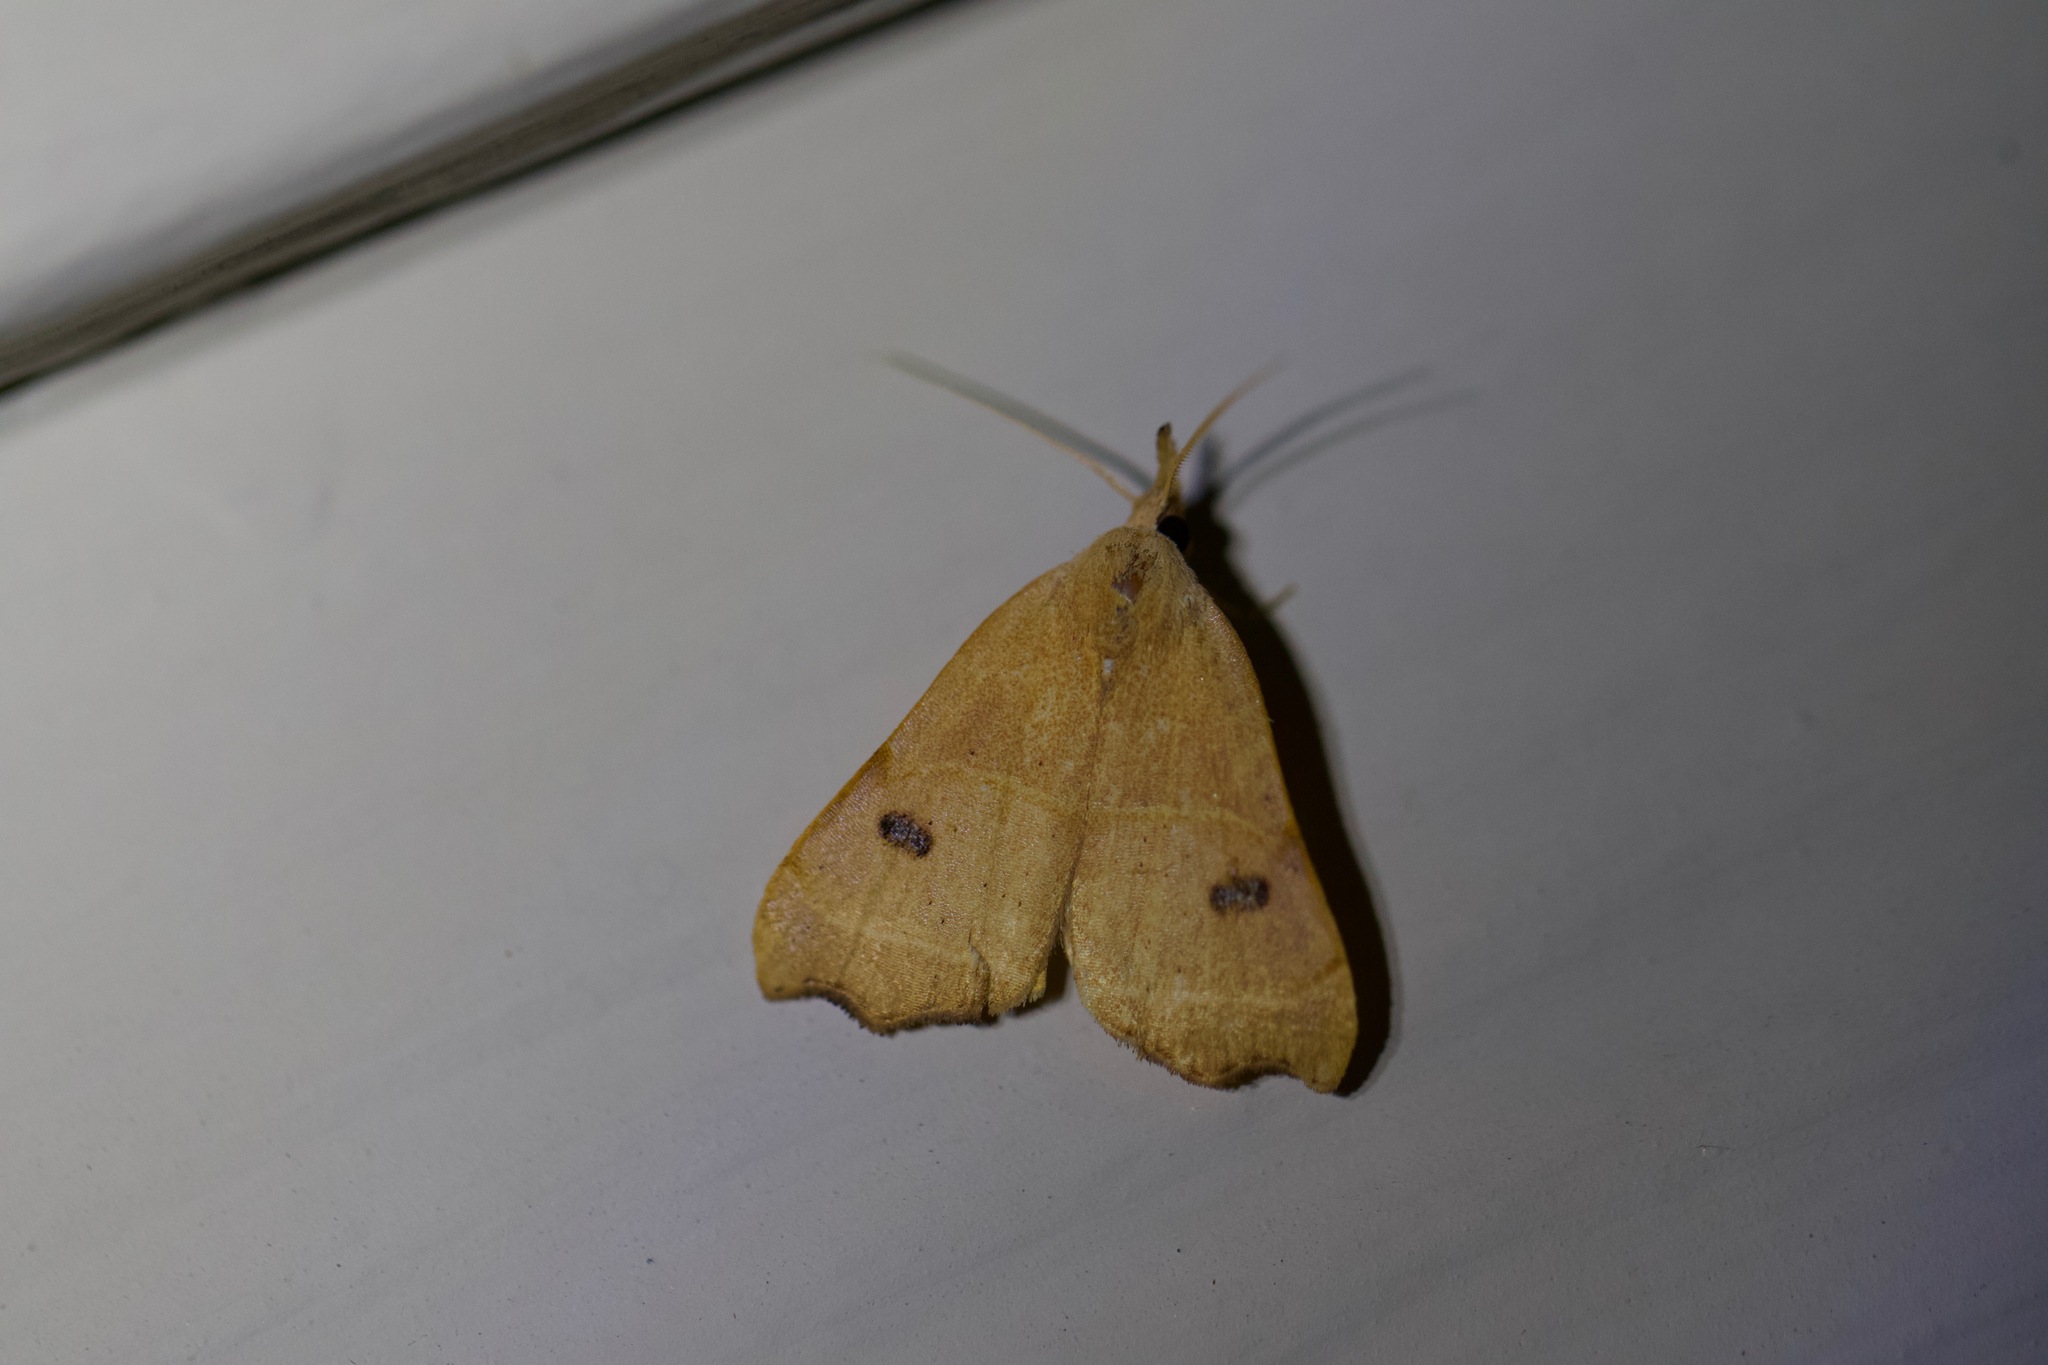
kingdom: Animalia
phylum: Arthropoda
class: Insecta
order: Lepidoptera
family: Erebidae
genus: Hondryches
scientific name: Hondryches phalaeniformis
